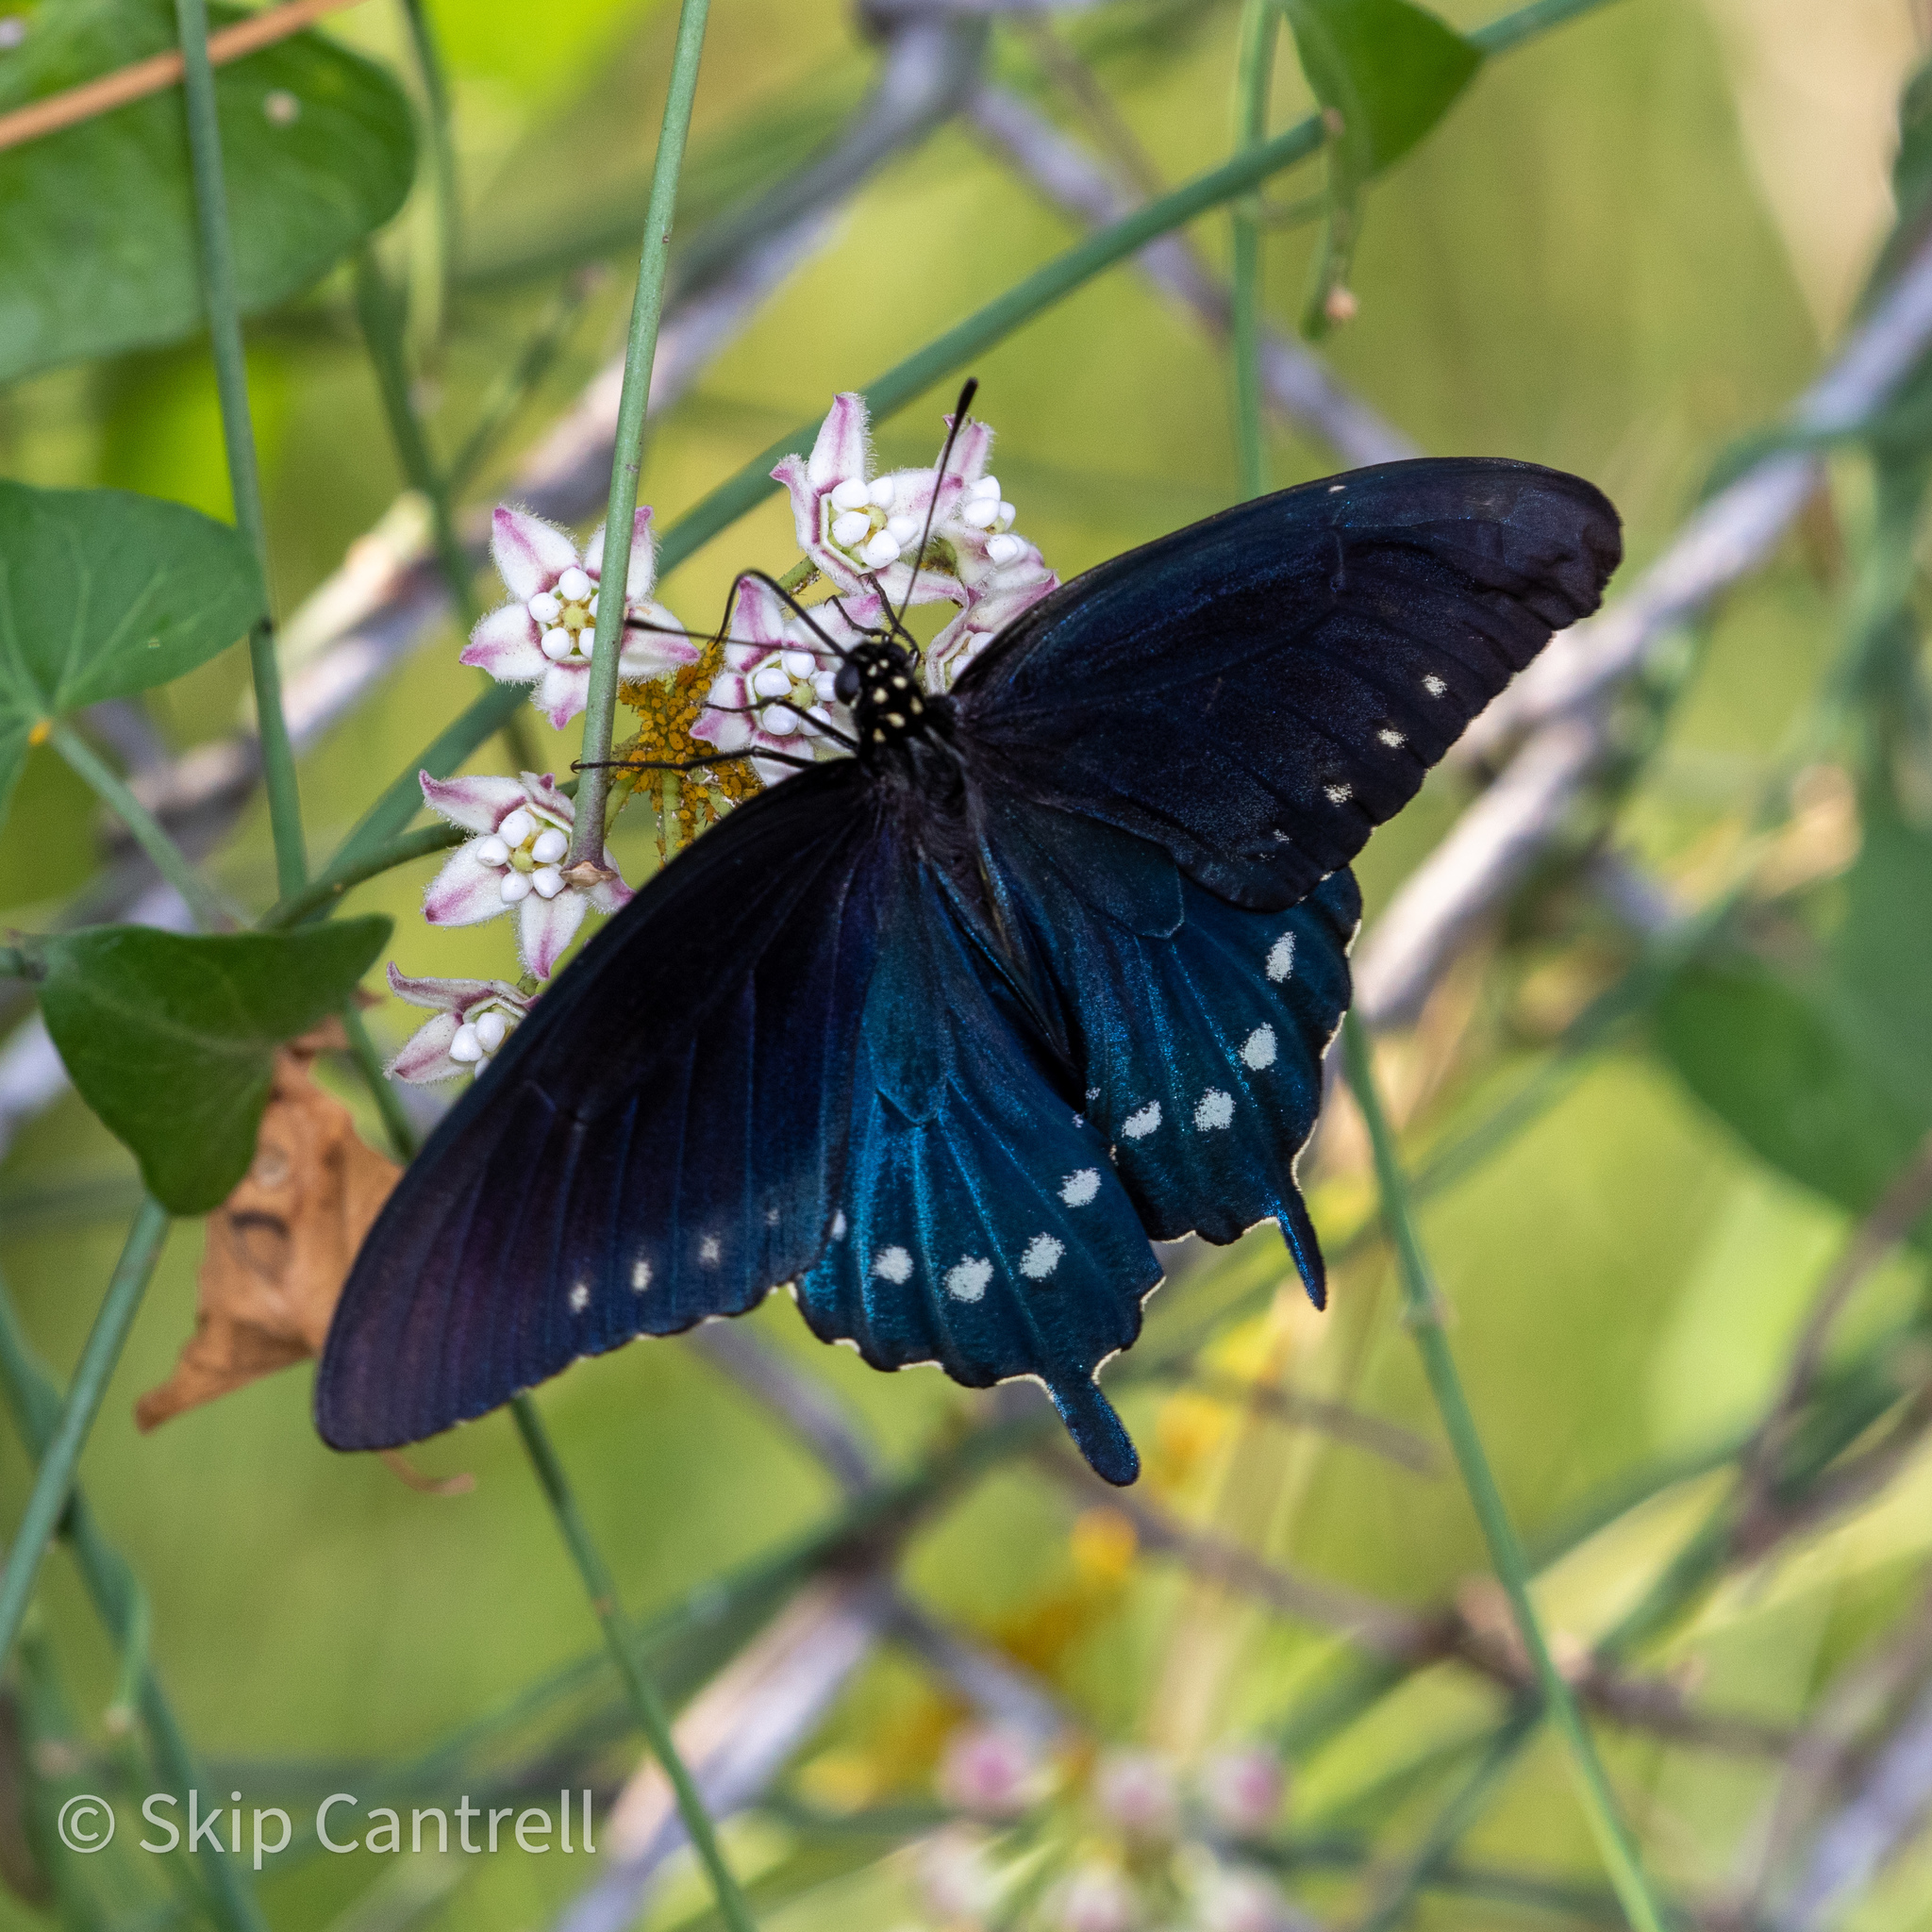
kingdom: Animalia
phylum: Arthropoda
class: Insecta
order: Lepidoptera
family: Papilionidae
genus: Battus
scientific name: Battus philenor
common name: Pipevine swallowtail
